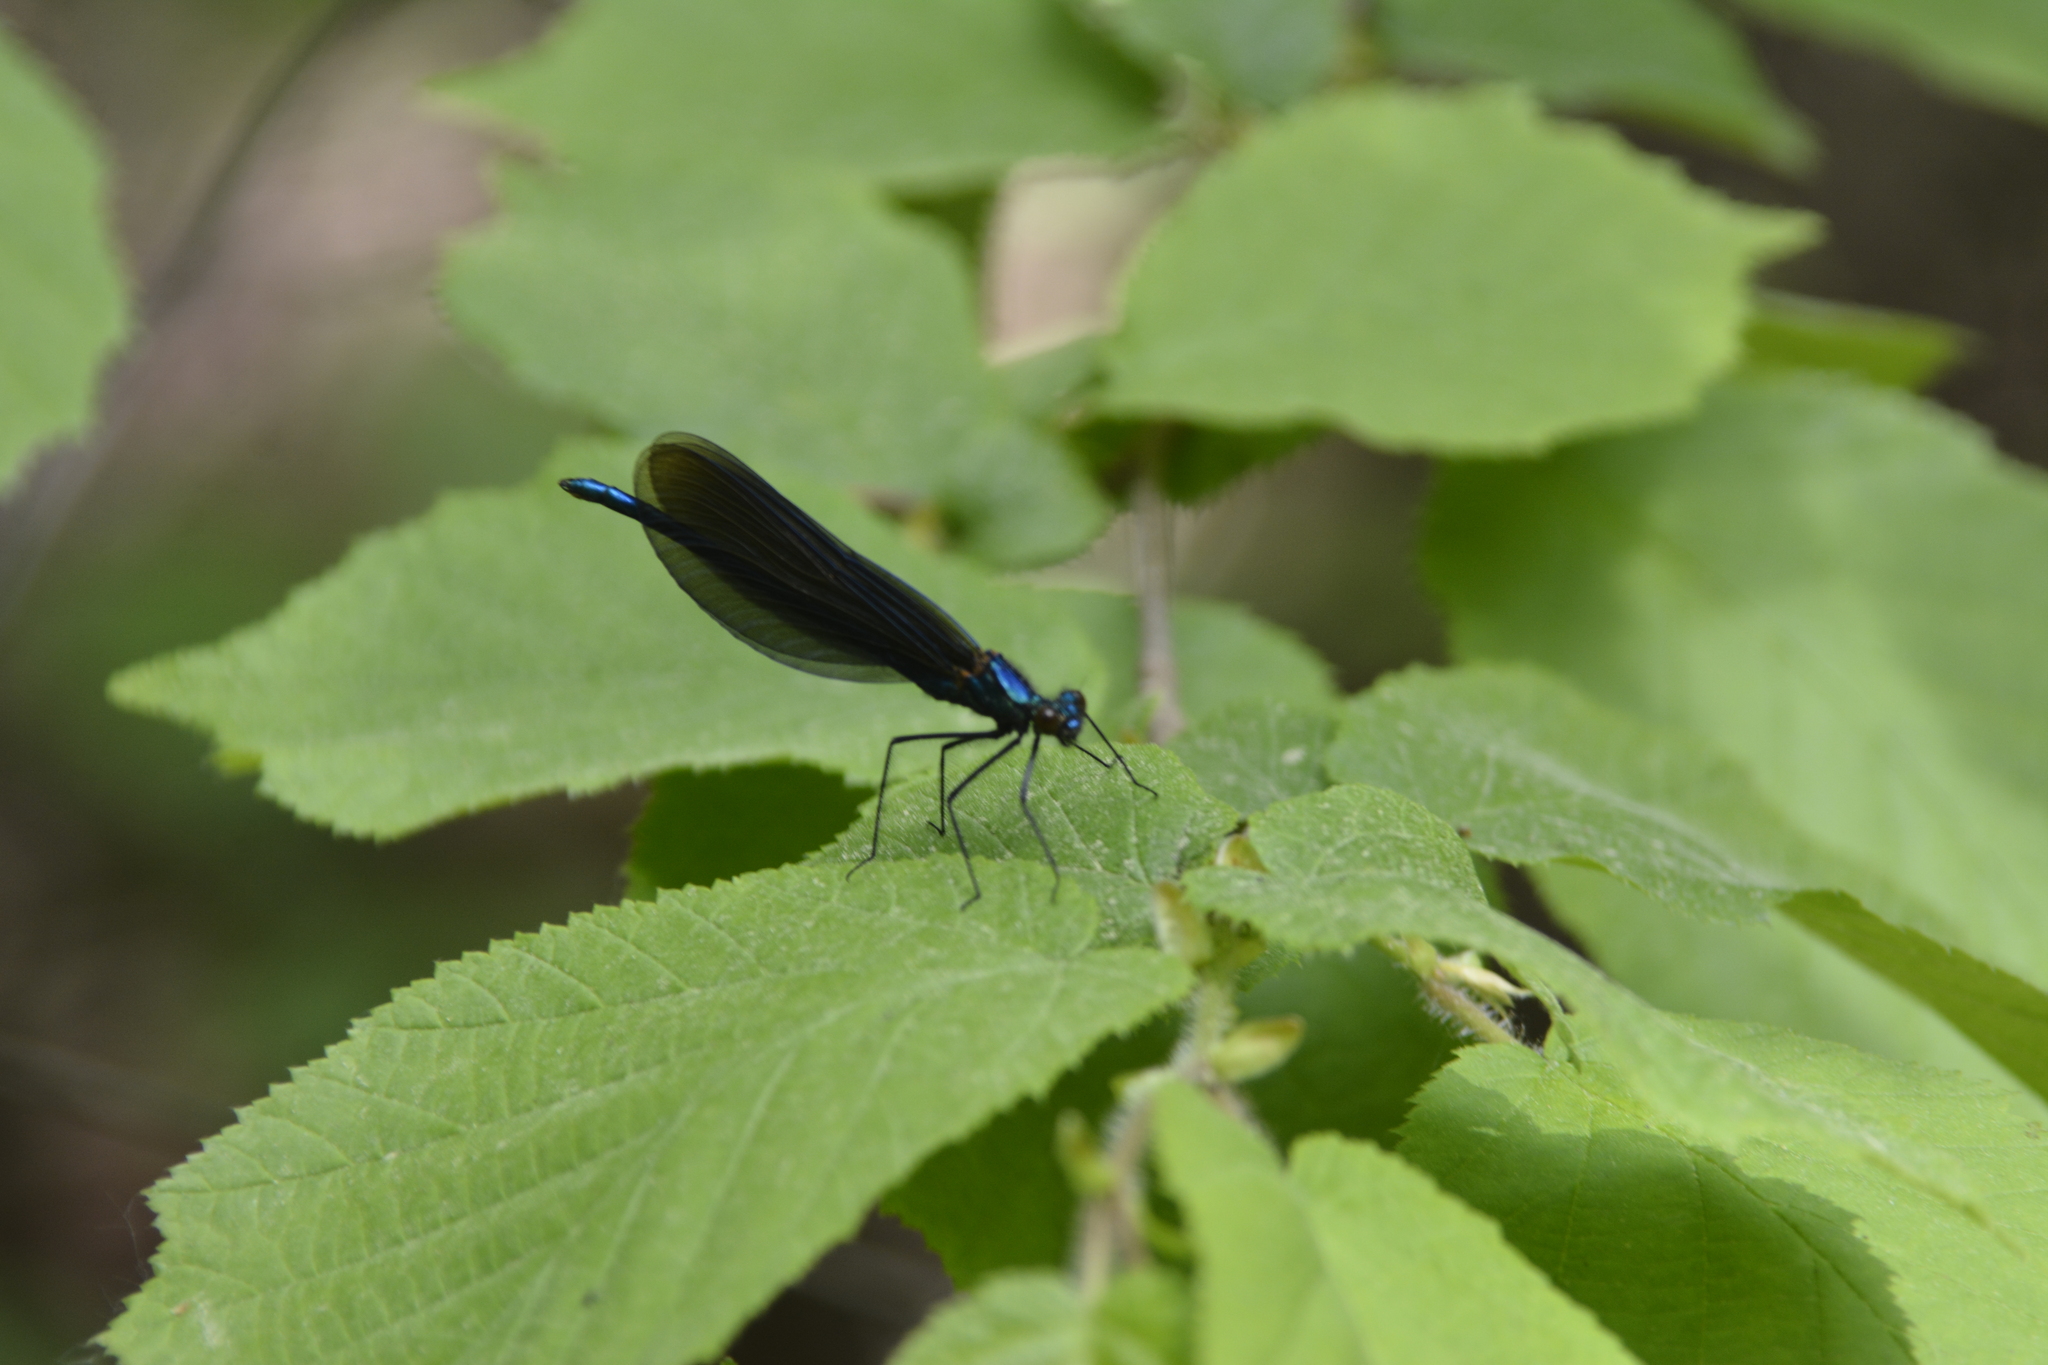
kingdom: Animalia
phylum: Arthropoda
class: Insecta
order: Odonata
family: Calopterygidae
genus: Calopteryx
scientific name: Calopteryx virgo
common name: Beautiful demoiselle
